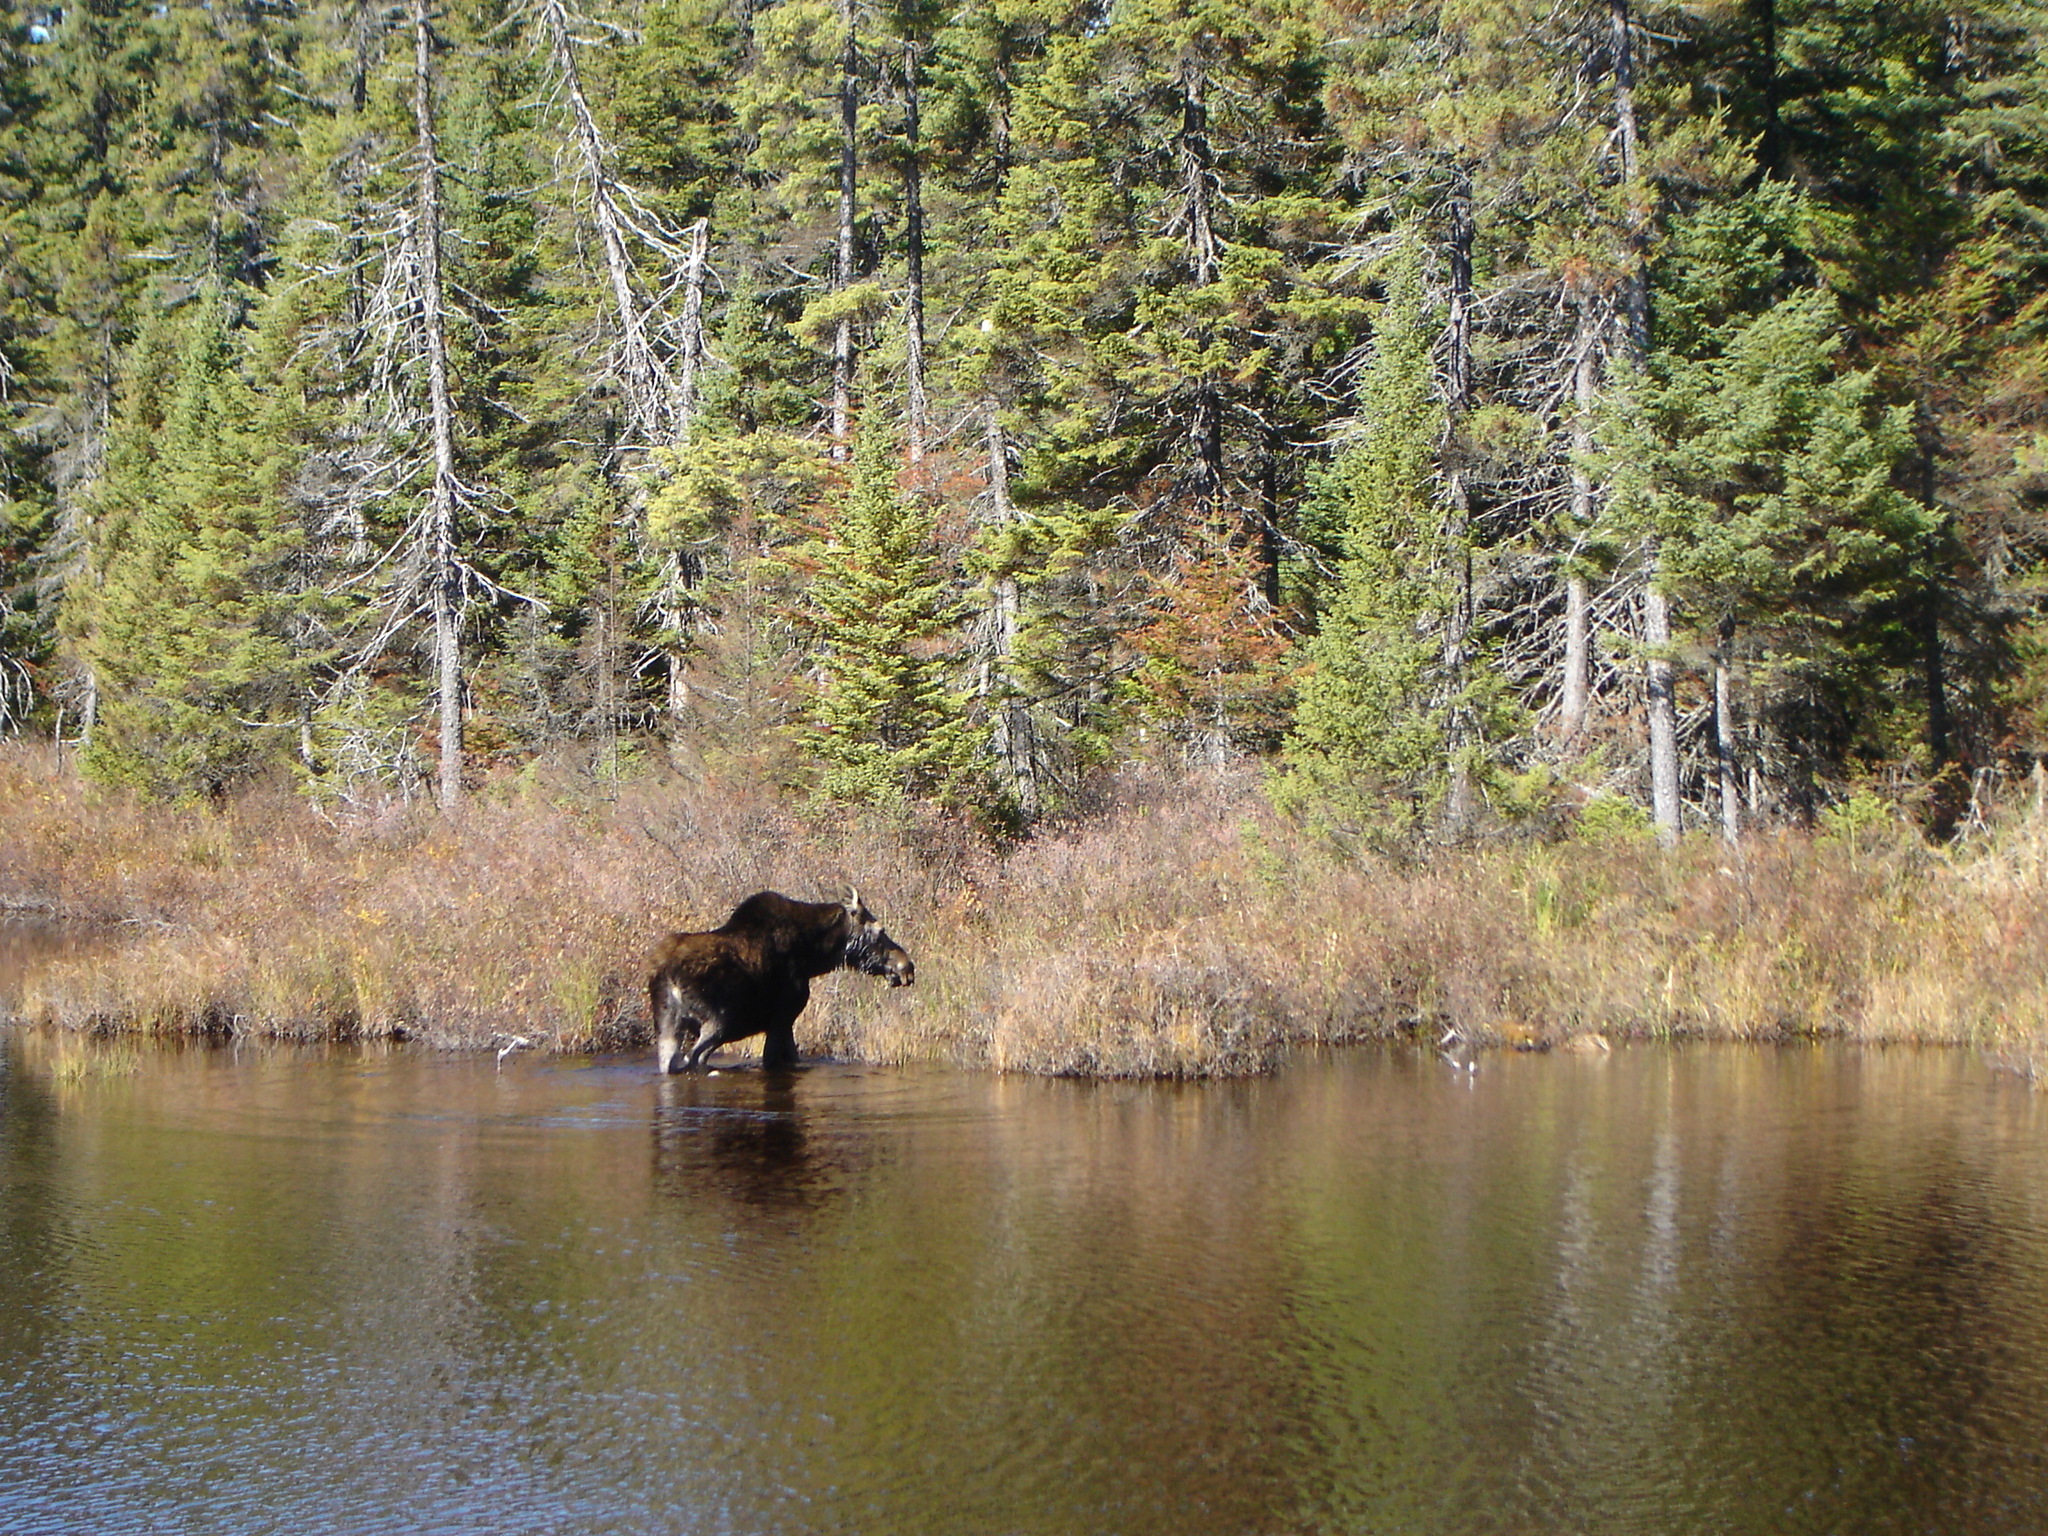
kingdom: Animalia
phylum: Chordata
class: Mammalia
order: Artiodactyla
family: Cervidae
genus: Alces
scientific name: Alces alces
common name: Moose
